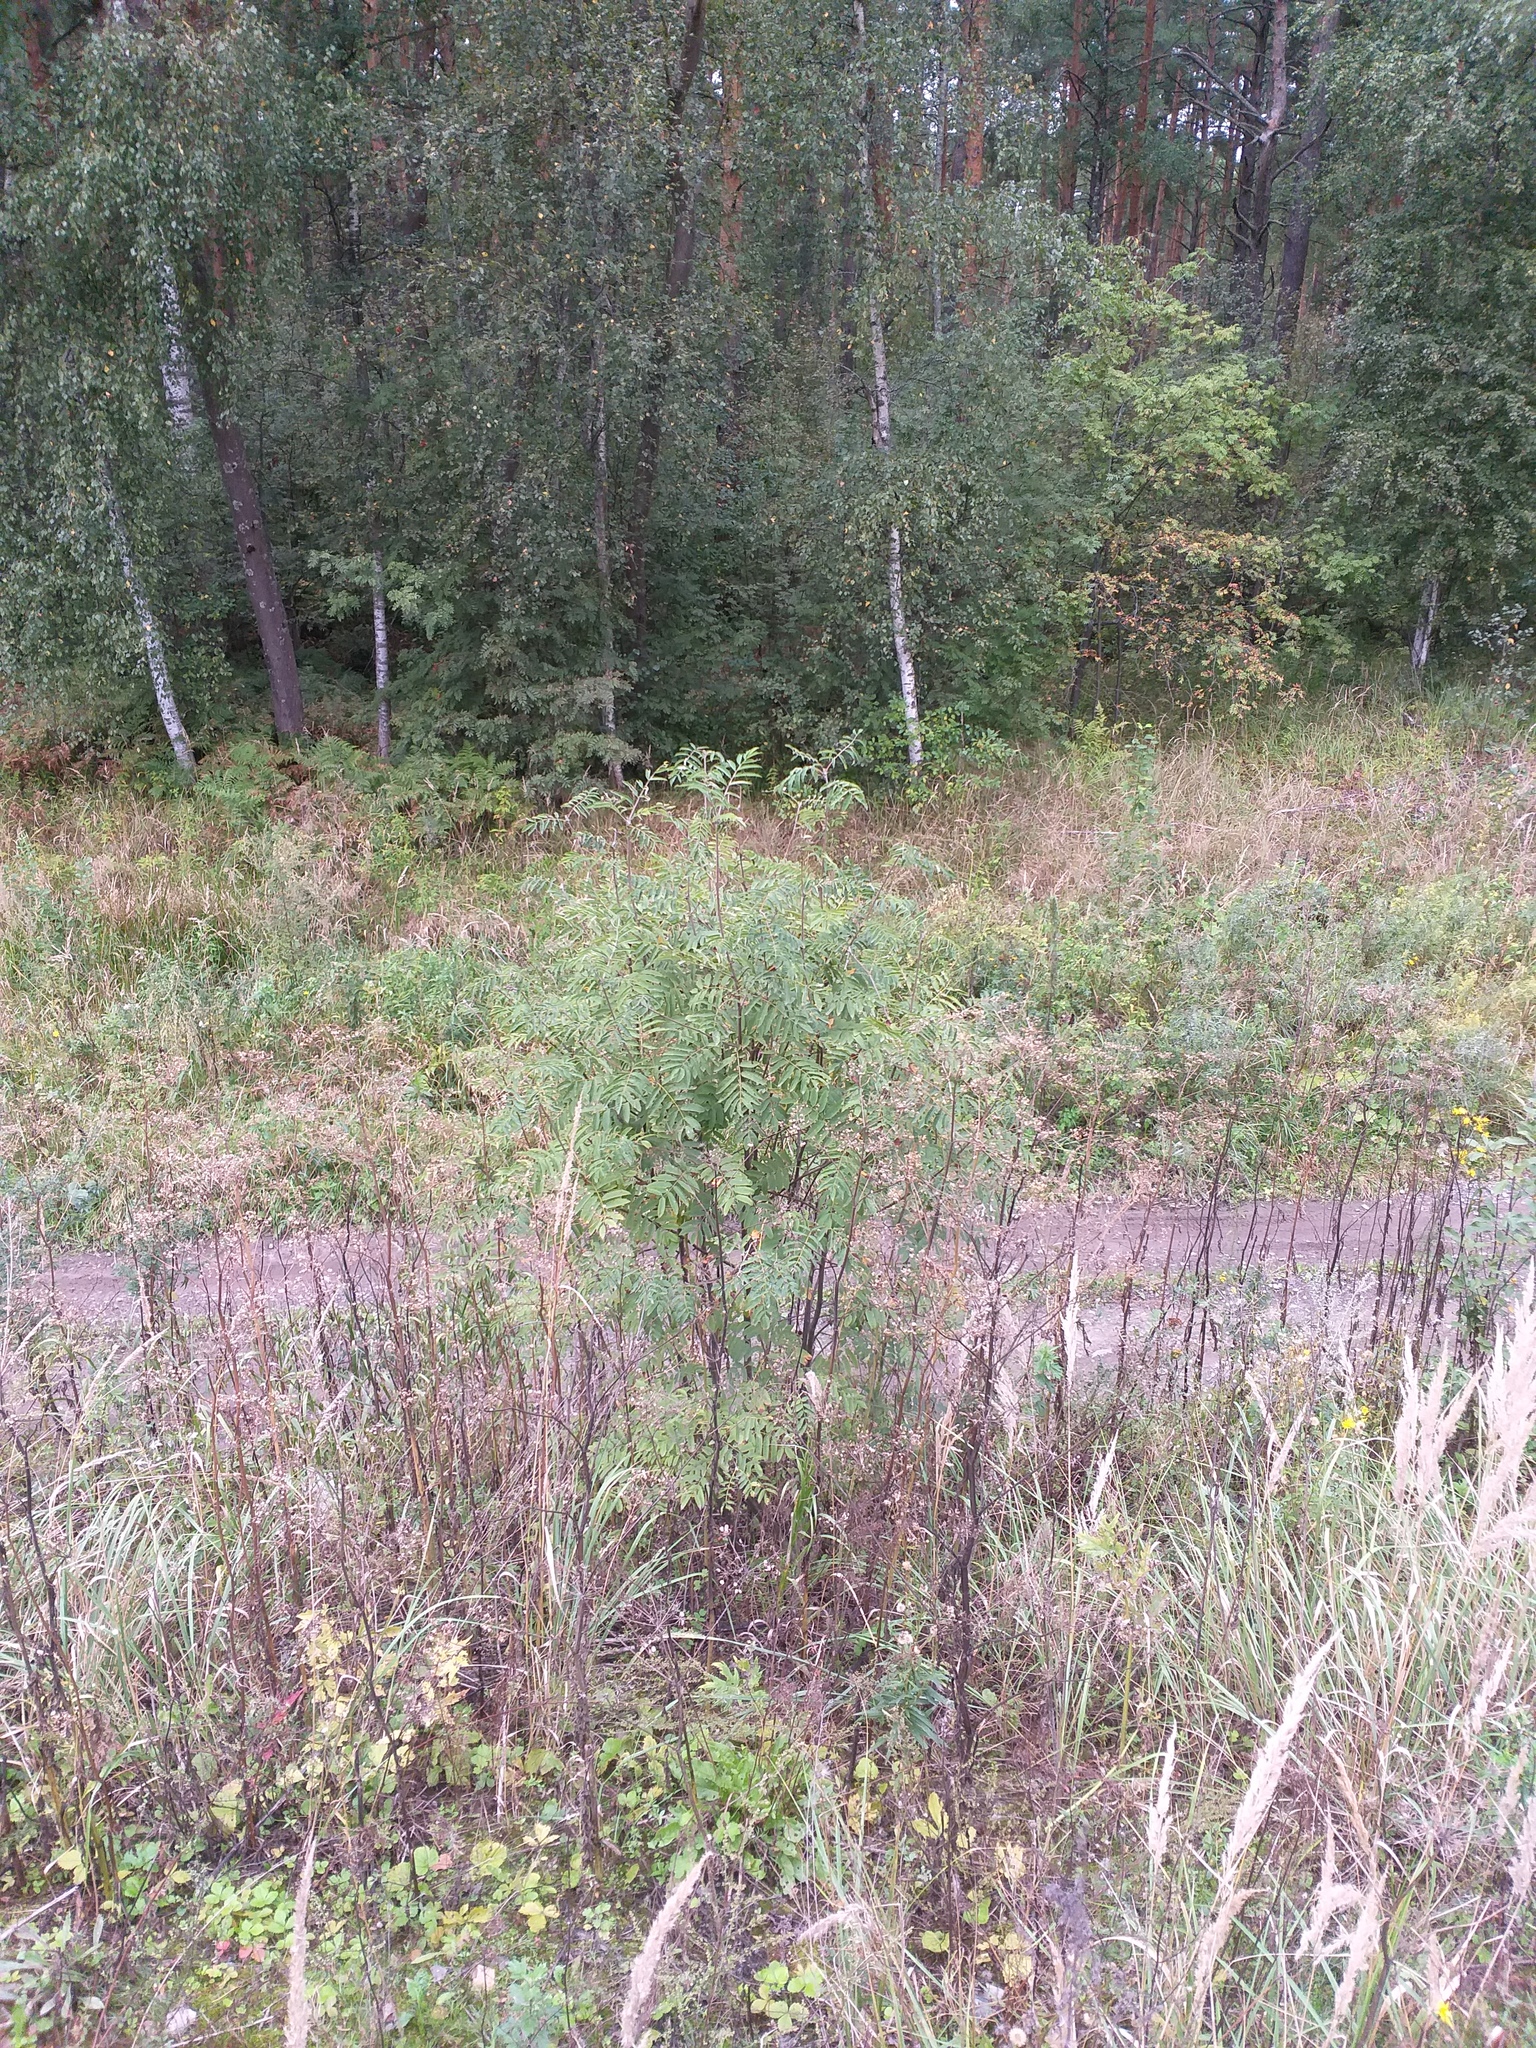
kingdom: Plantae
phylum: Tracheophyta
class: Magnoliopsida
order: Rosales
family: Rosaceae
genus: Sorbus
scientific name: Sorbus aucuparia
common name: Rowan
